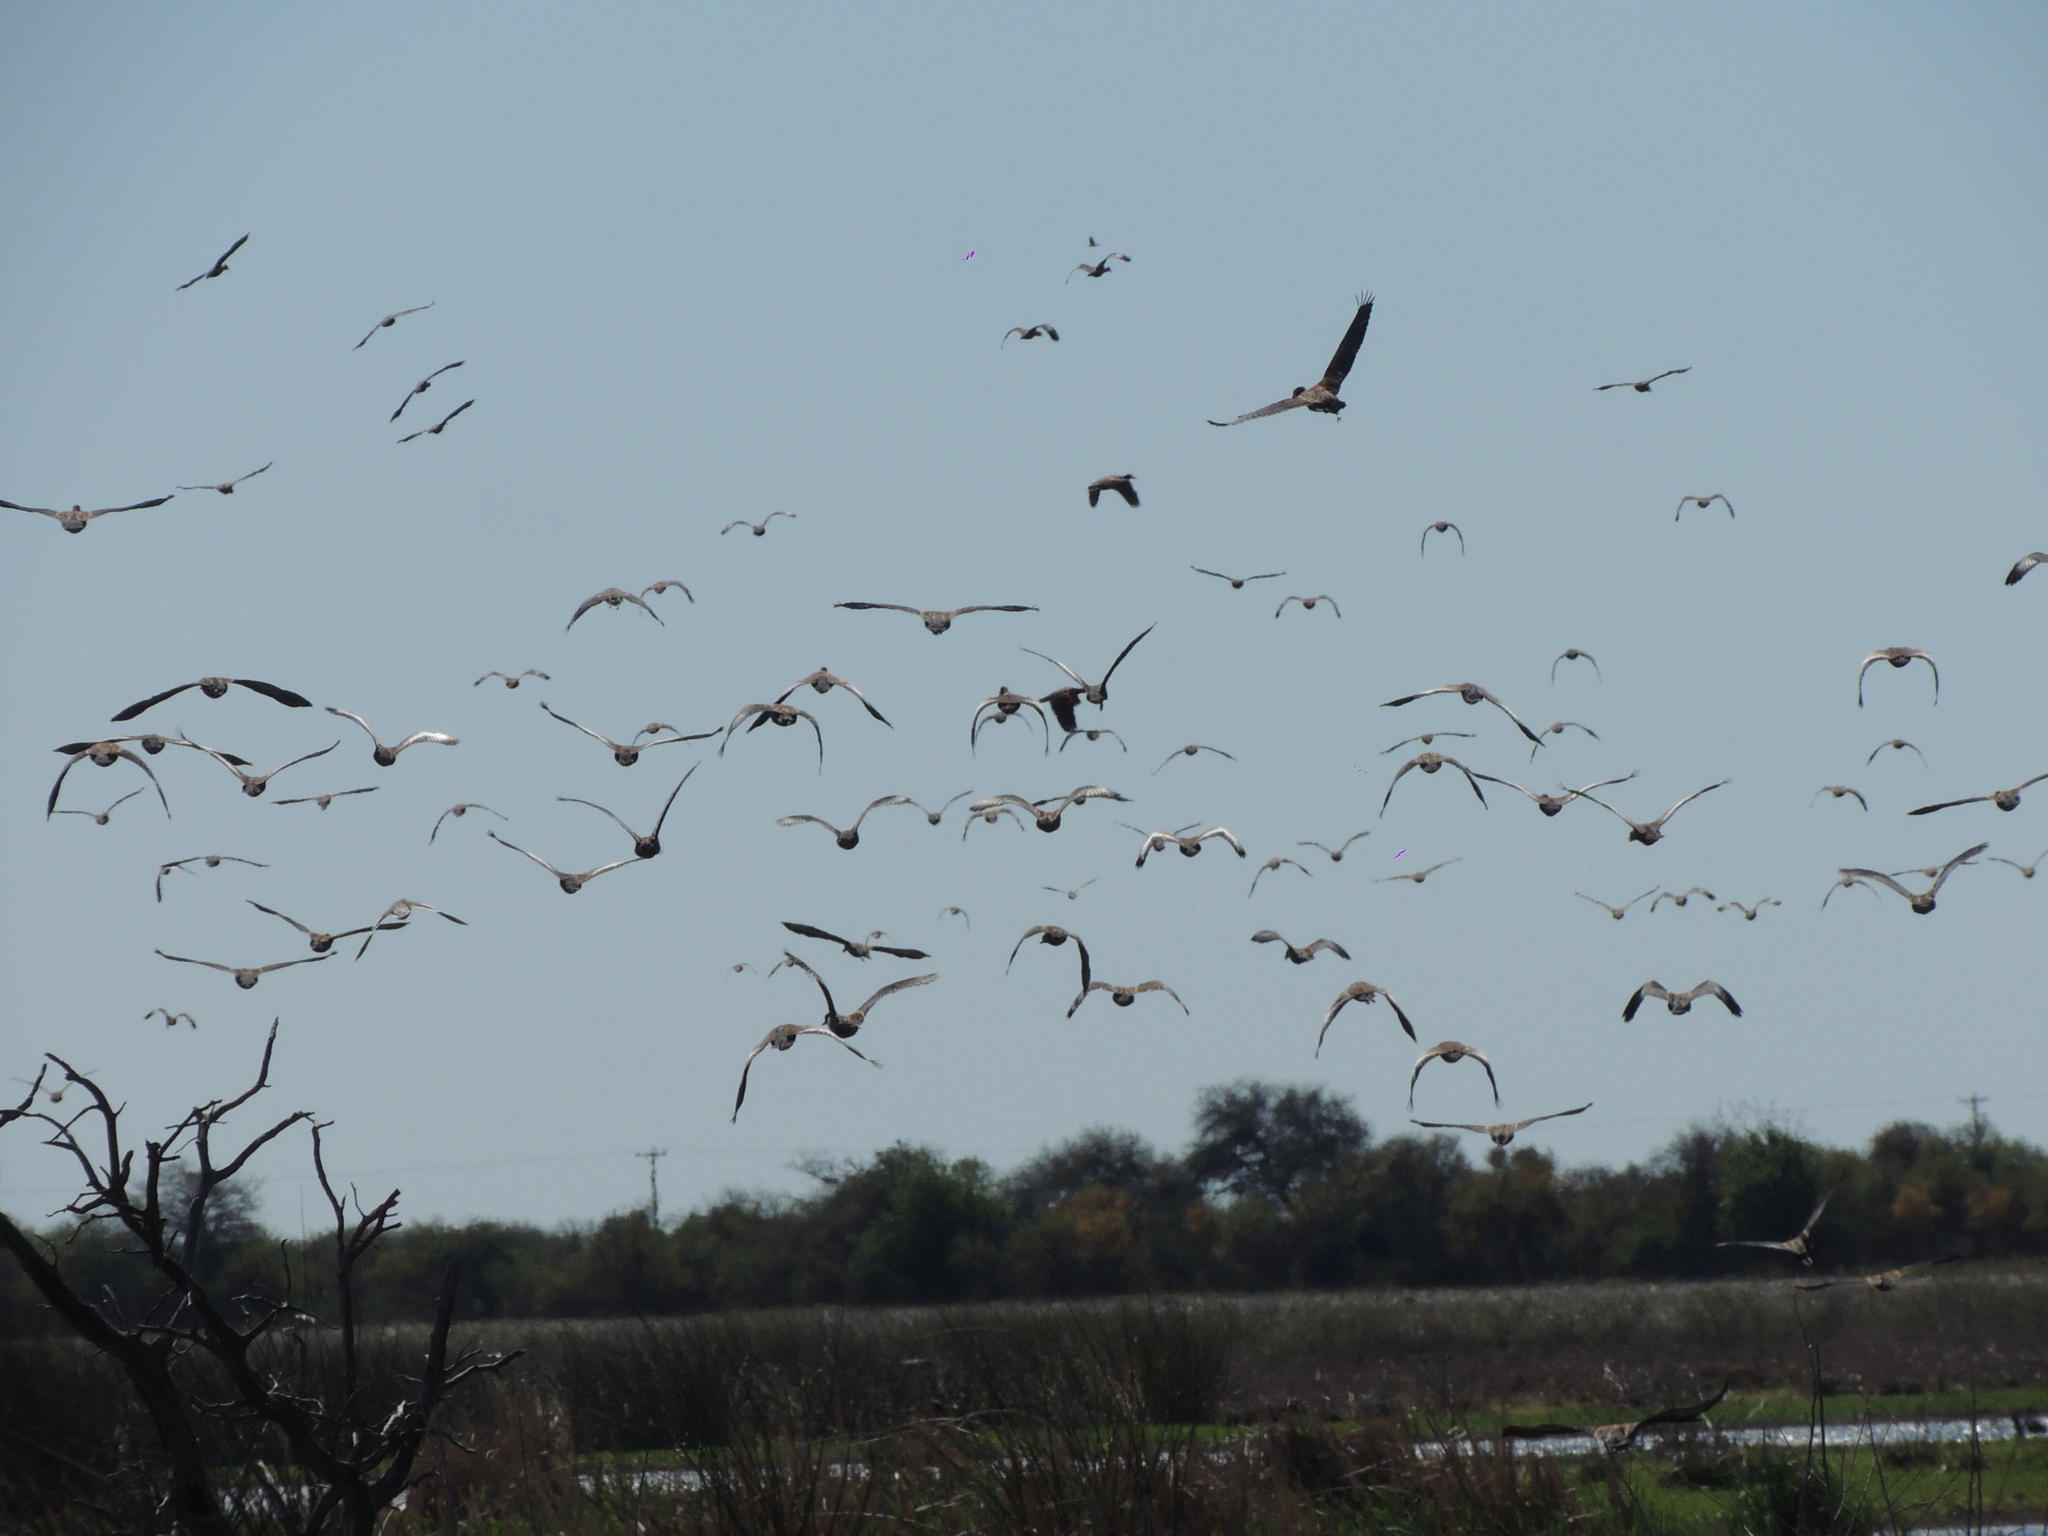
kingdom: Animalia
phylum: Chordata
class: Aves
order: Anseriformes
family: Anatidae
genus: Dendrocygna
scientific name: Dendrocygna autumnalis
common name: Black-bellied whistling duck
